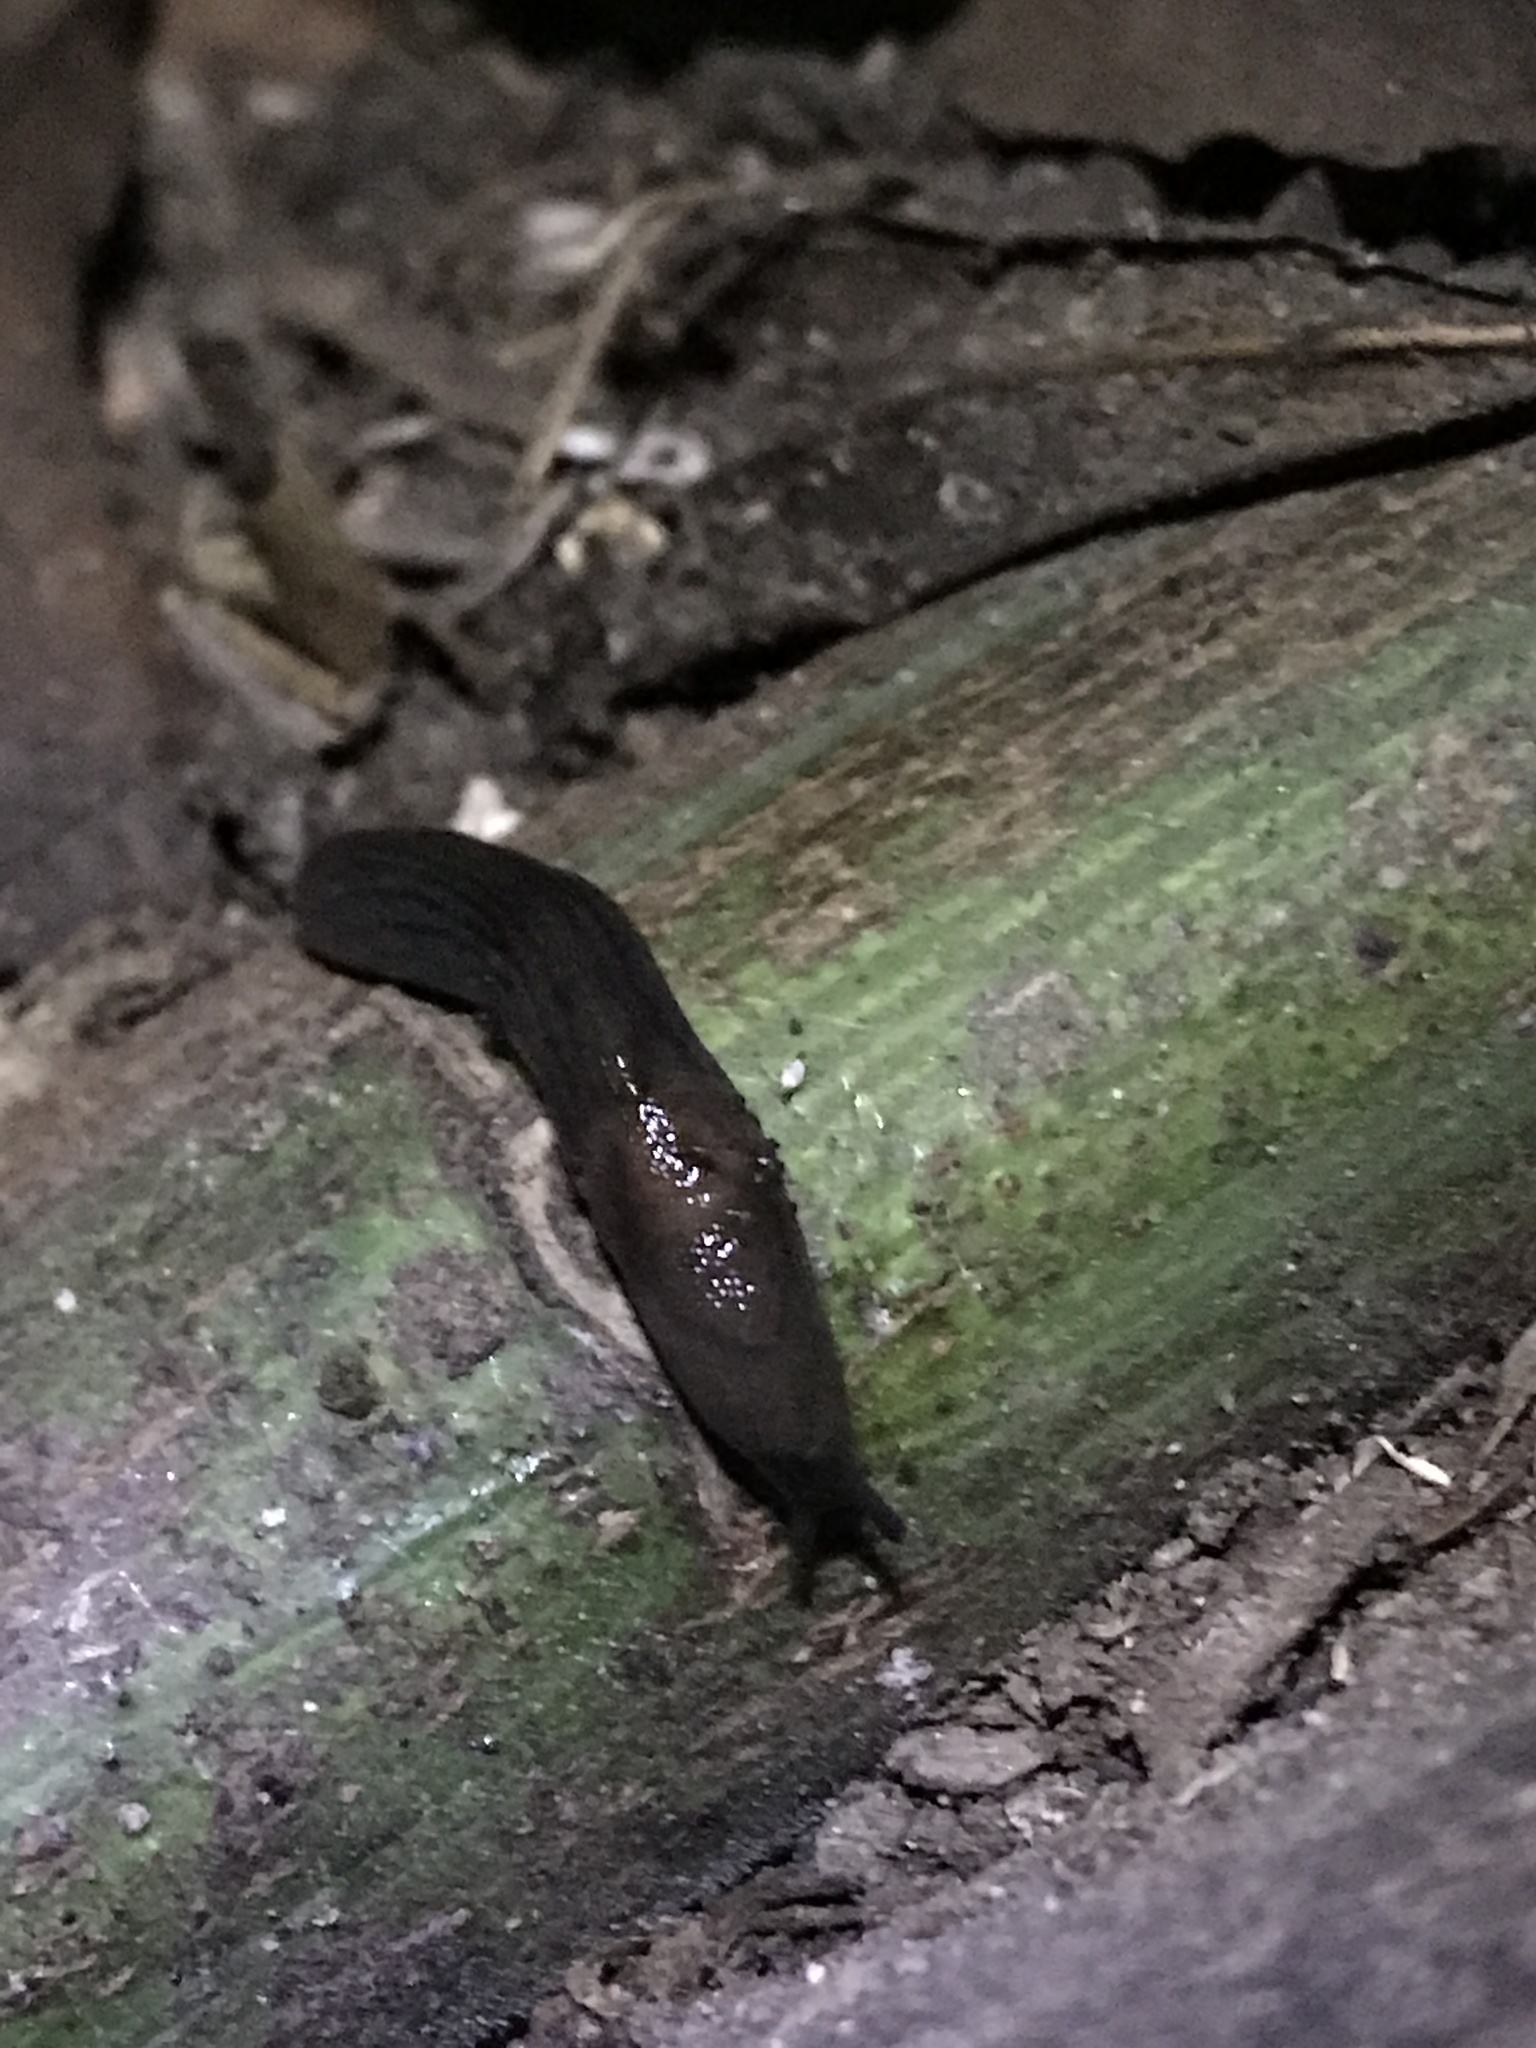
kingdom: Animalia
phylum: Mollusca
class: Gastropoda
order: Stylommatophora
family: Milacidae
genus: Milax
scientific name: Milax gagates
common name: Greenhouse slug
